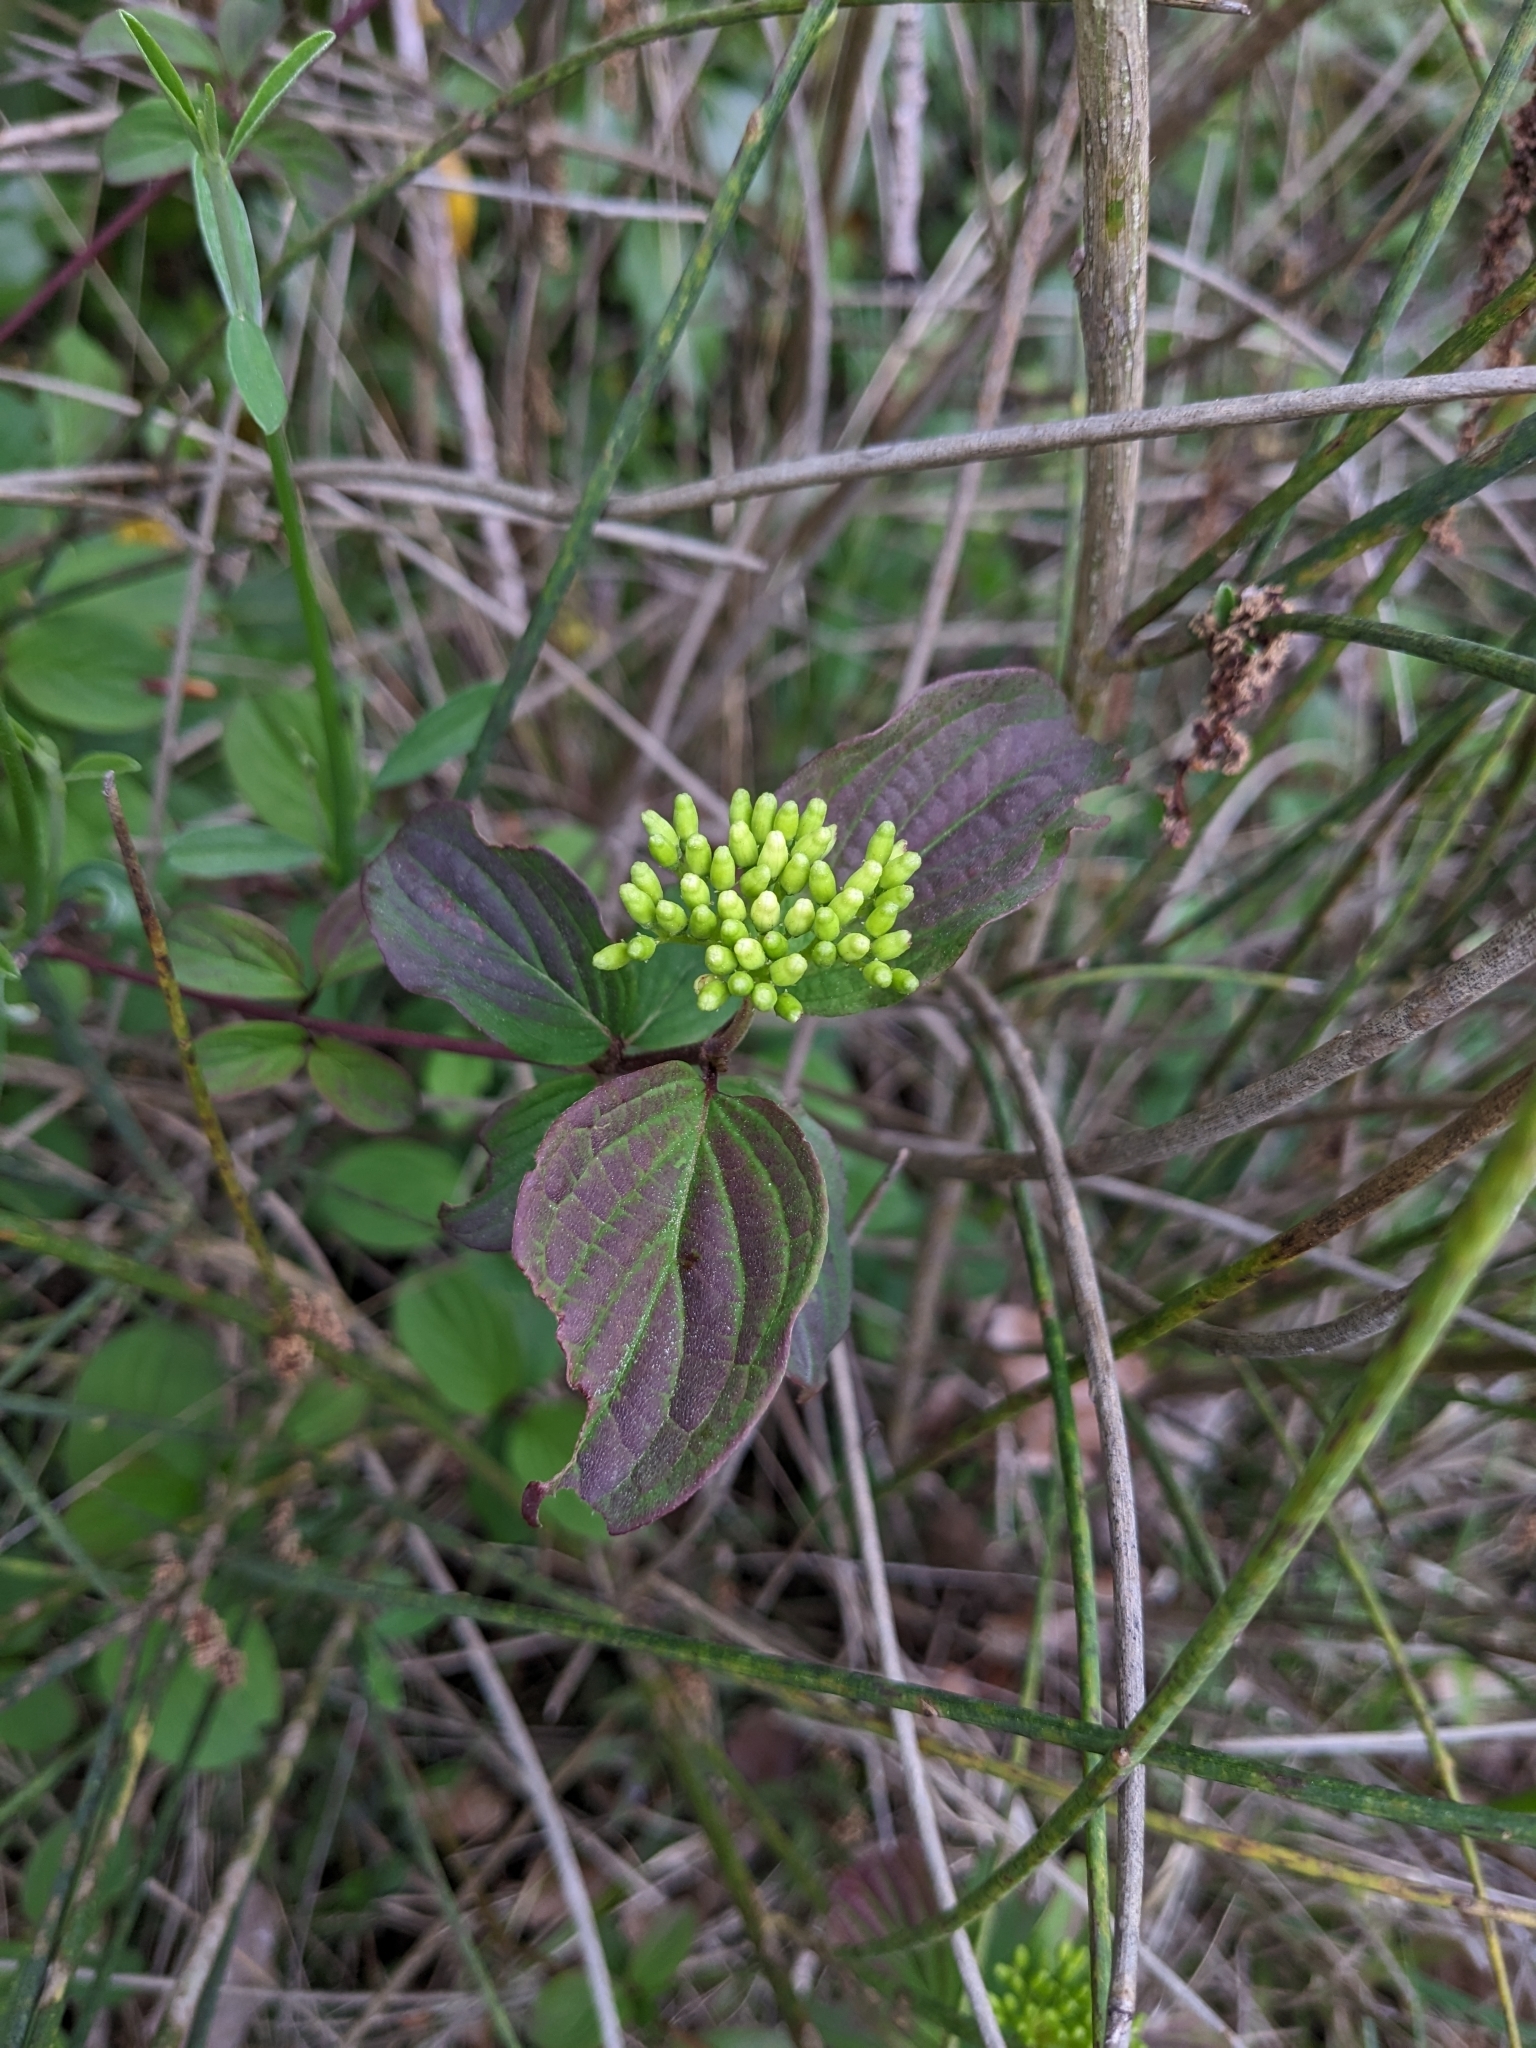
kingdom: Plantae
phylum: Tracheophyta
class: Magnoliopsida
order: Cornales
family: Cornaceae
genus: Cornus
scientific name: Cornus sanguinea
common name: Dogwood
